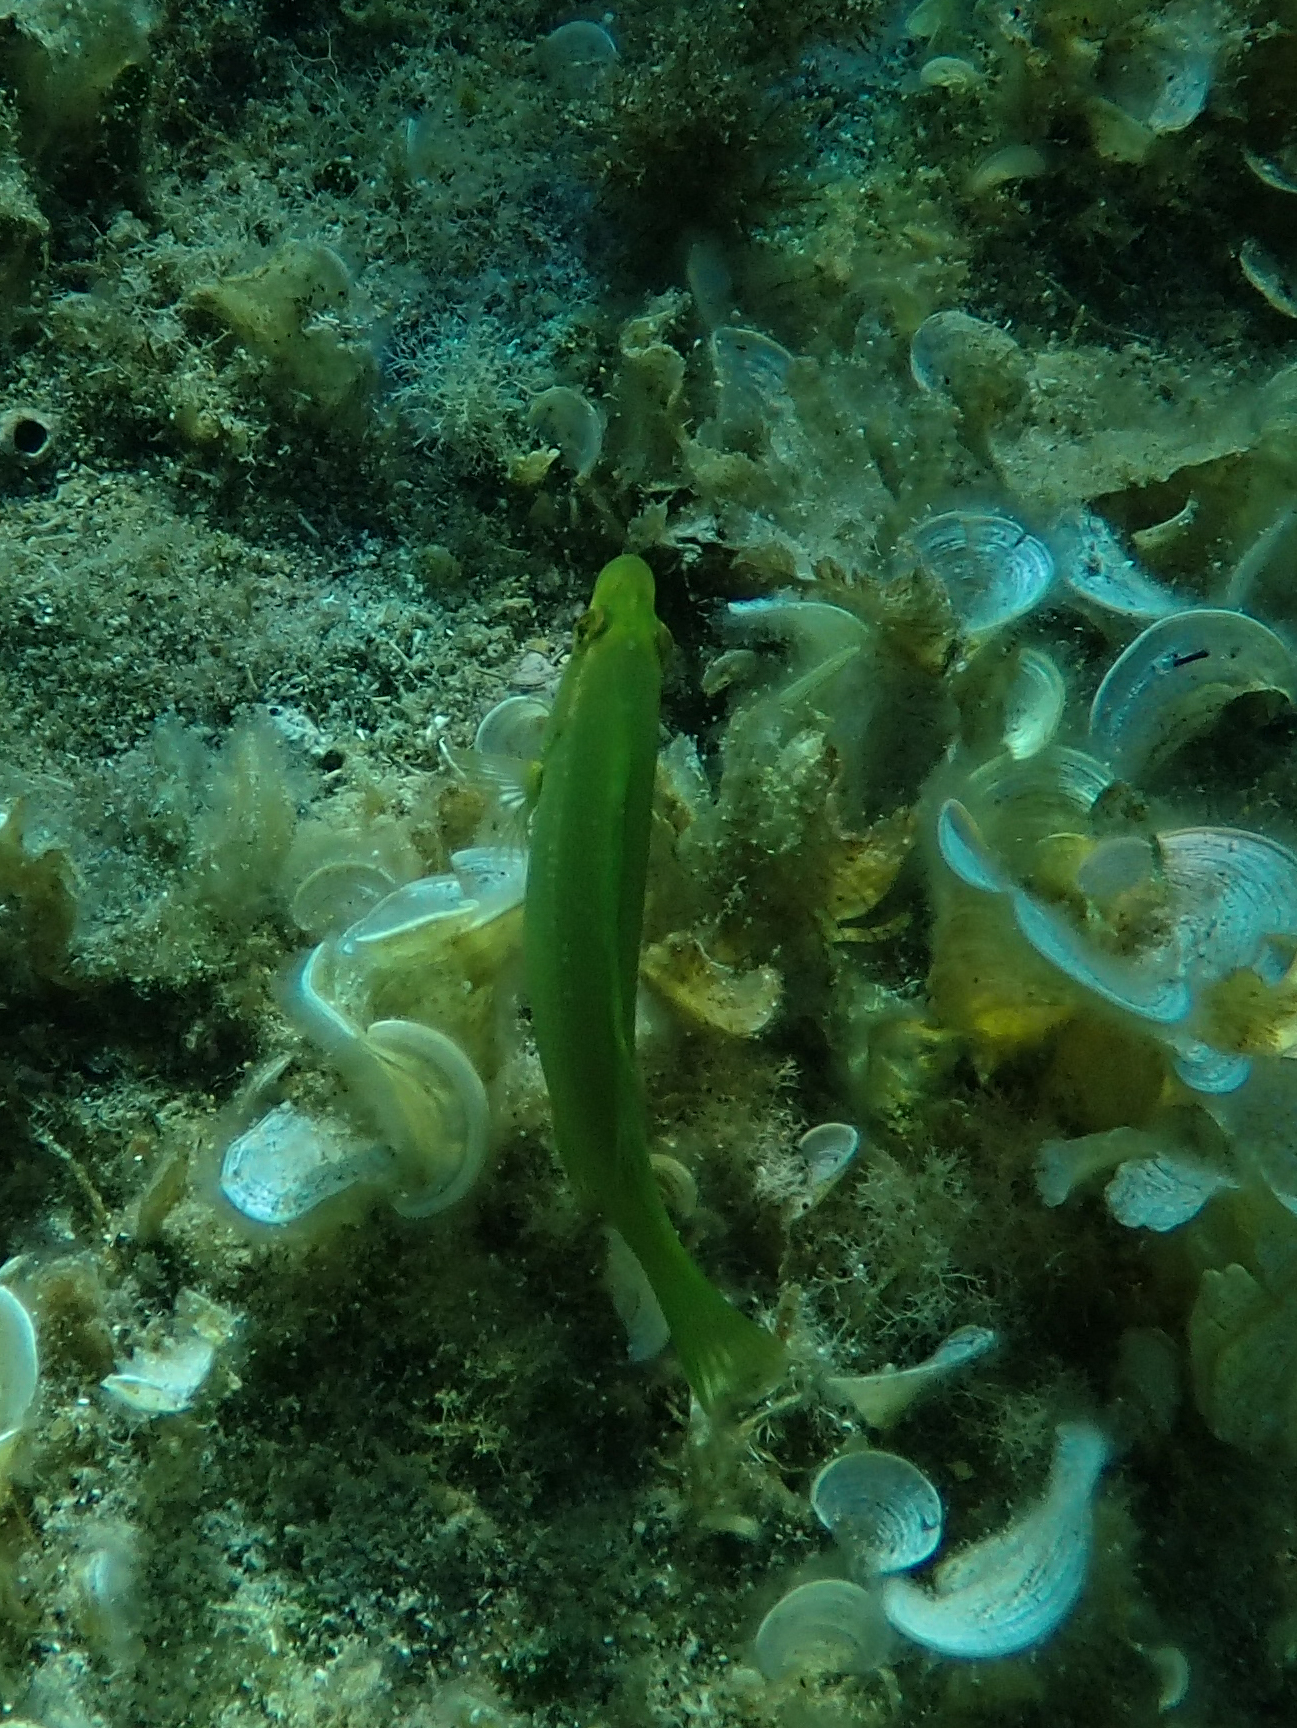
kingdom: Animalia
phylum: Chordata
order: Perciformes
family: Labridae
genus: Labrus
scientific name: Labrus viridis
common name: Green wrasse
